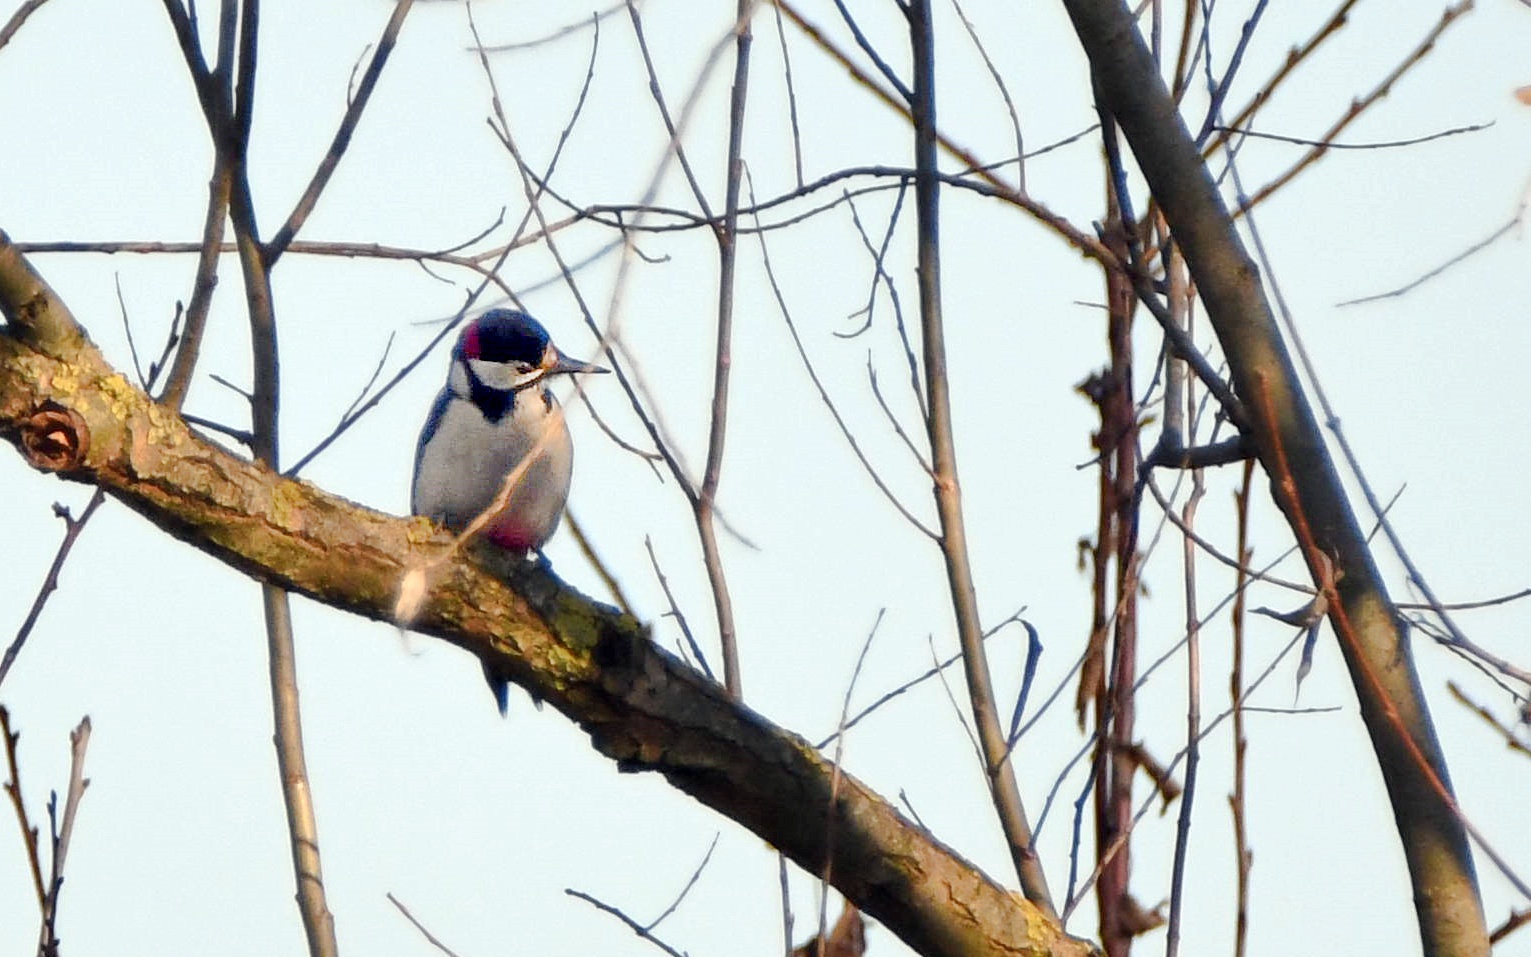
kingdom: Animalia
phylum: Chordata
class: Aves
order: Piciformes
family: Picidae
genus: Dendrocopos
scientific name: Dendrocopos major
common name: Great spotted woodpecker
